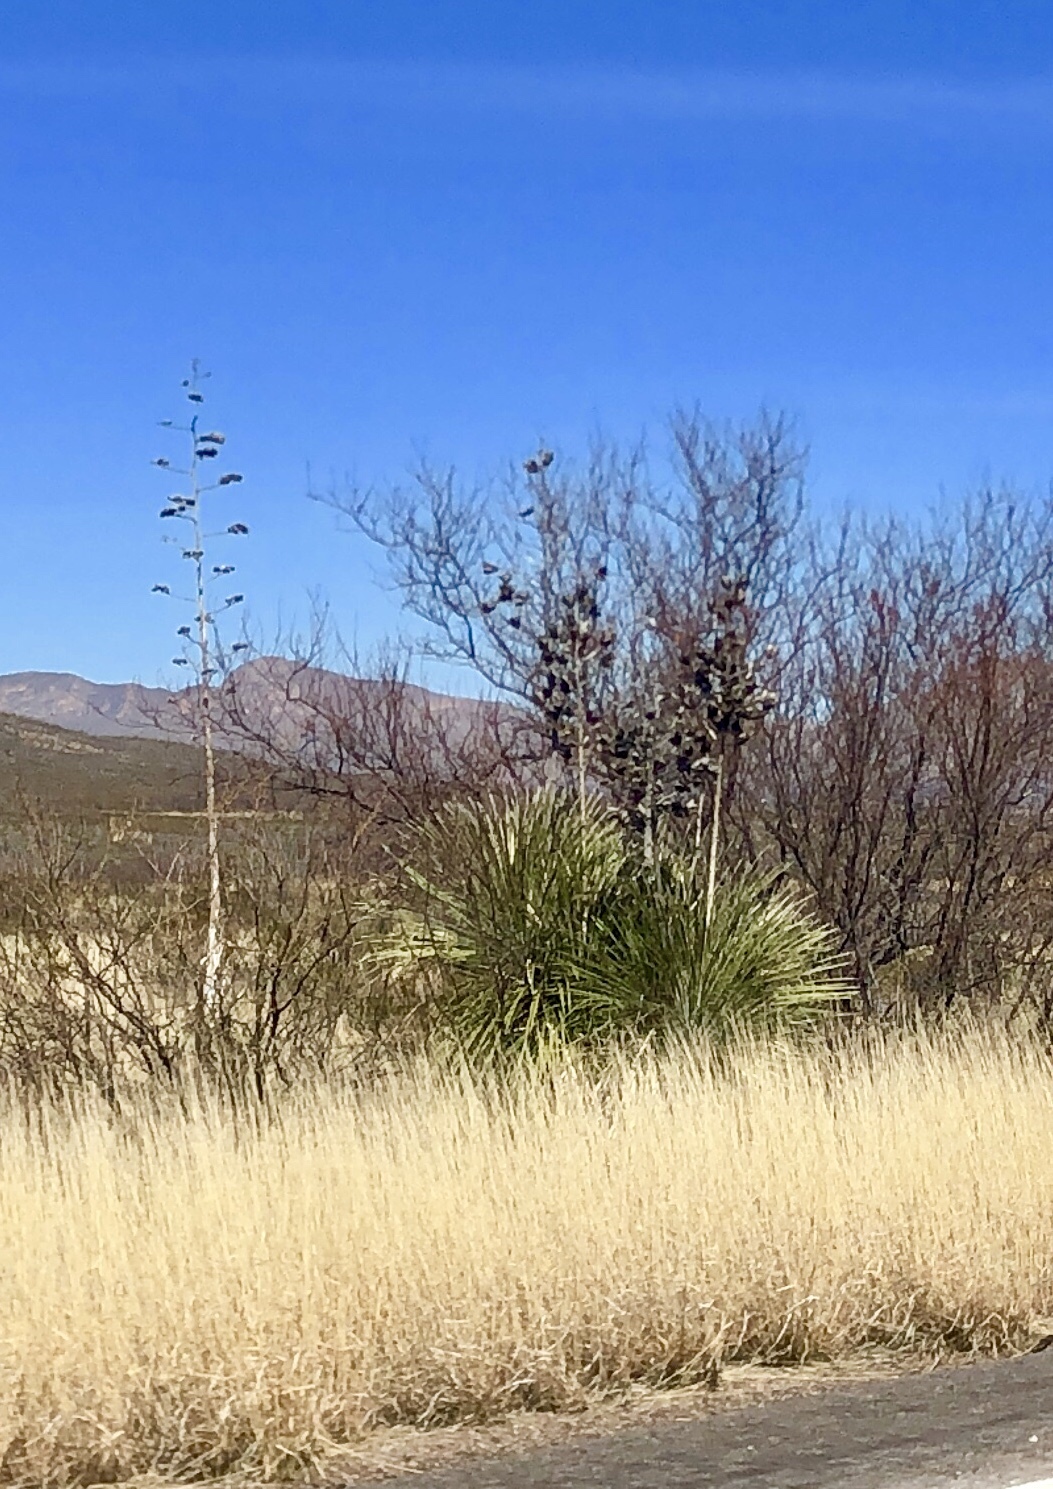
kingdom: Plantae
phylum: Tracheophyta
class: Liliopsida
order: Asparagales
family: Asparagaceae
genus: Yucca
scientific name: Yucca elata
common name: Palmella
